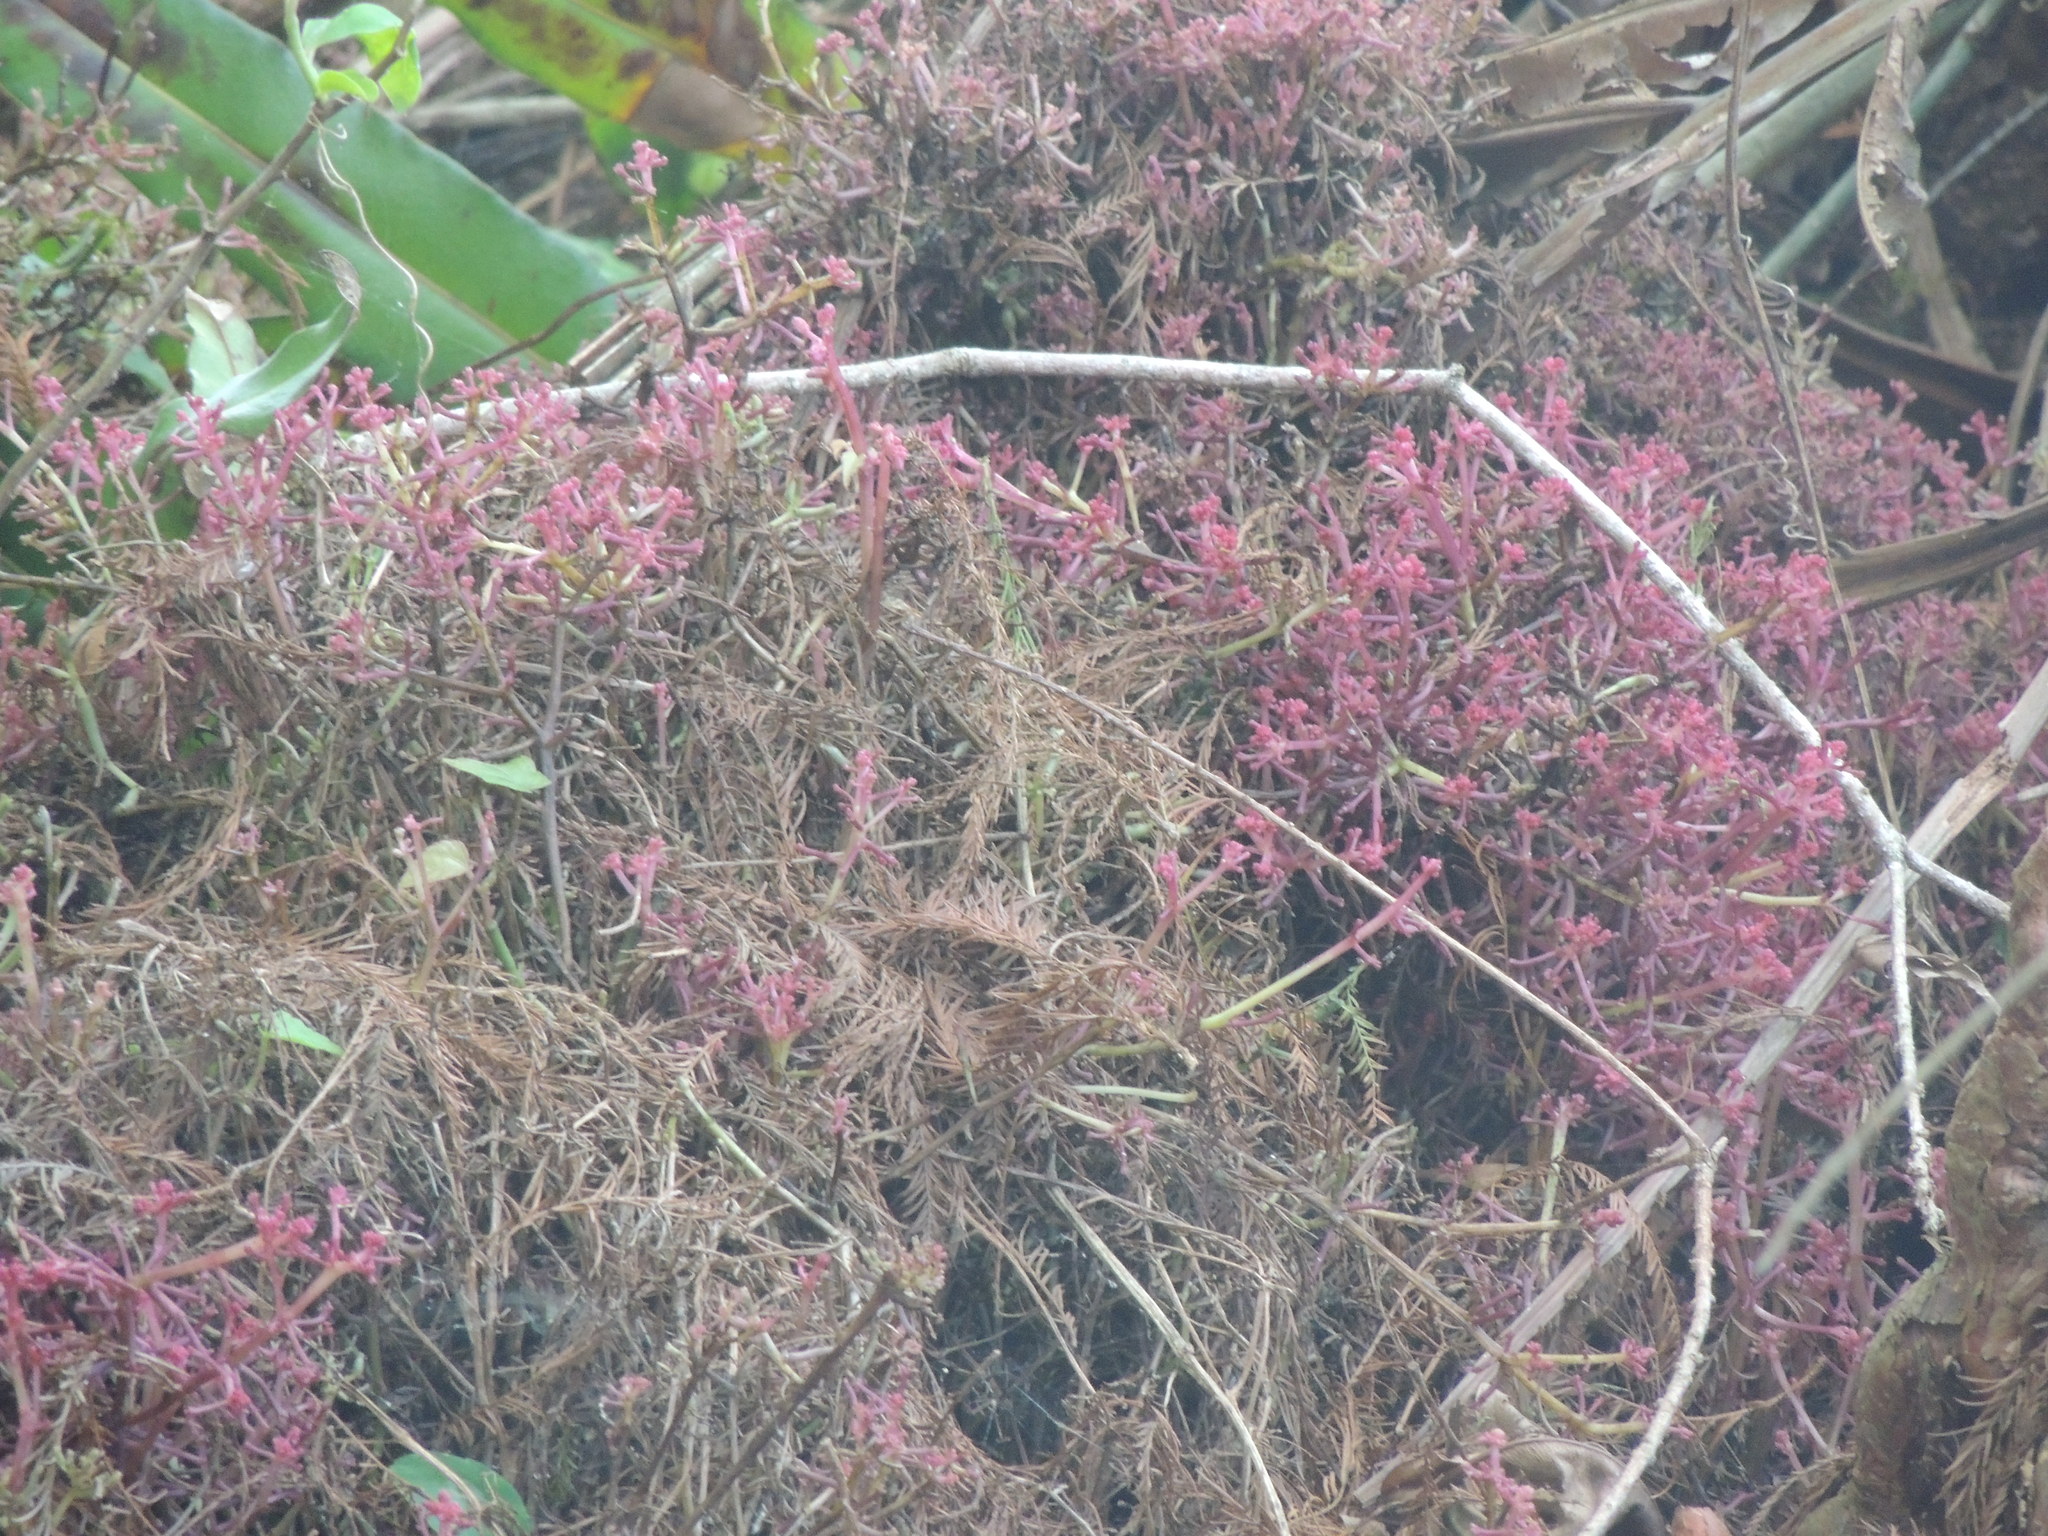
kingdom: Plantae
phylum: Tracheophyta
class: Magnoliopsida
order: Vitales
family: Vitaceae
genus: Cissus
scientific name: Cissus verticillata
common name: Princess vine
